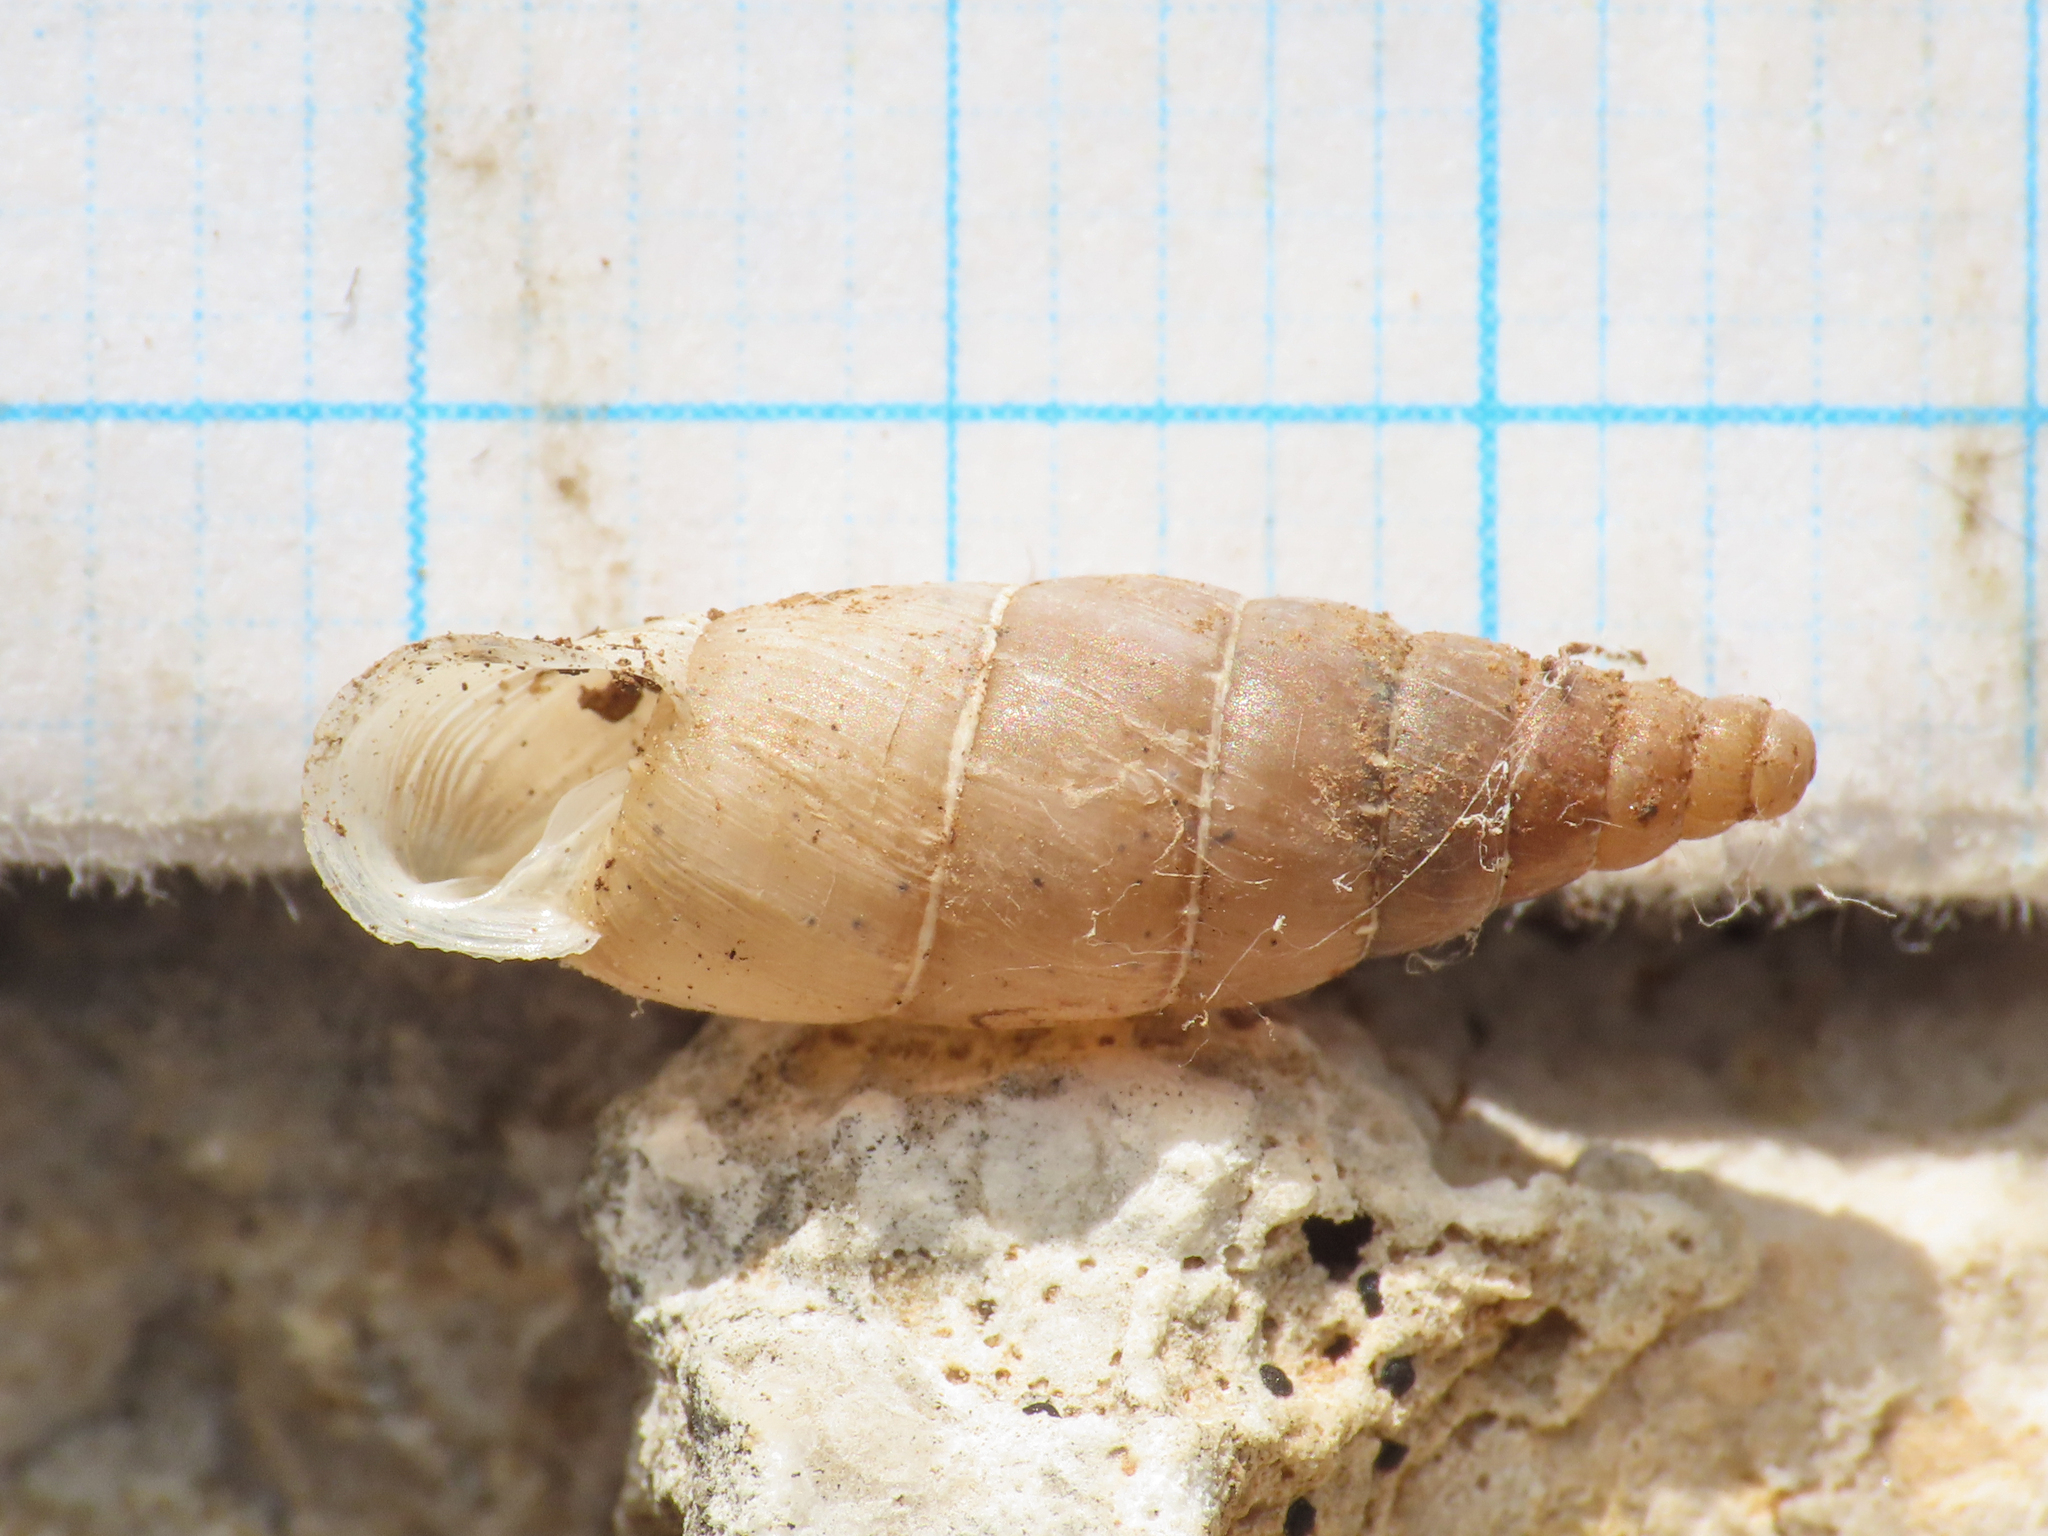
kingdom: Animalia
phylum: Mollusca
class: Gastropoda
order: Stylommatophora
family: Clausiliidae
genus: Leucostigma
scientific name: Leucostigma candidescens
